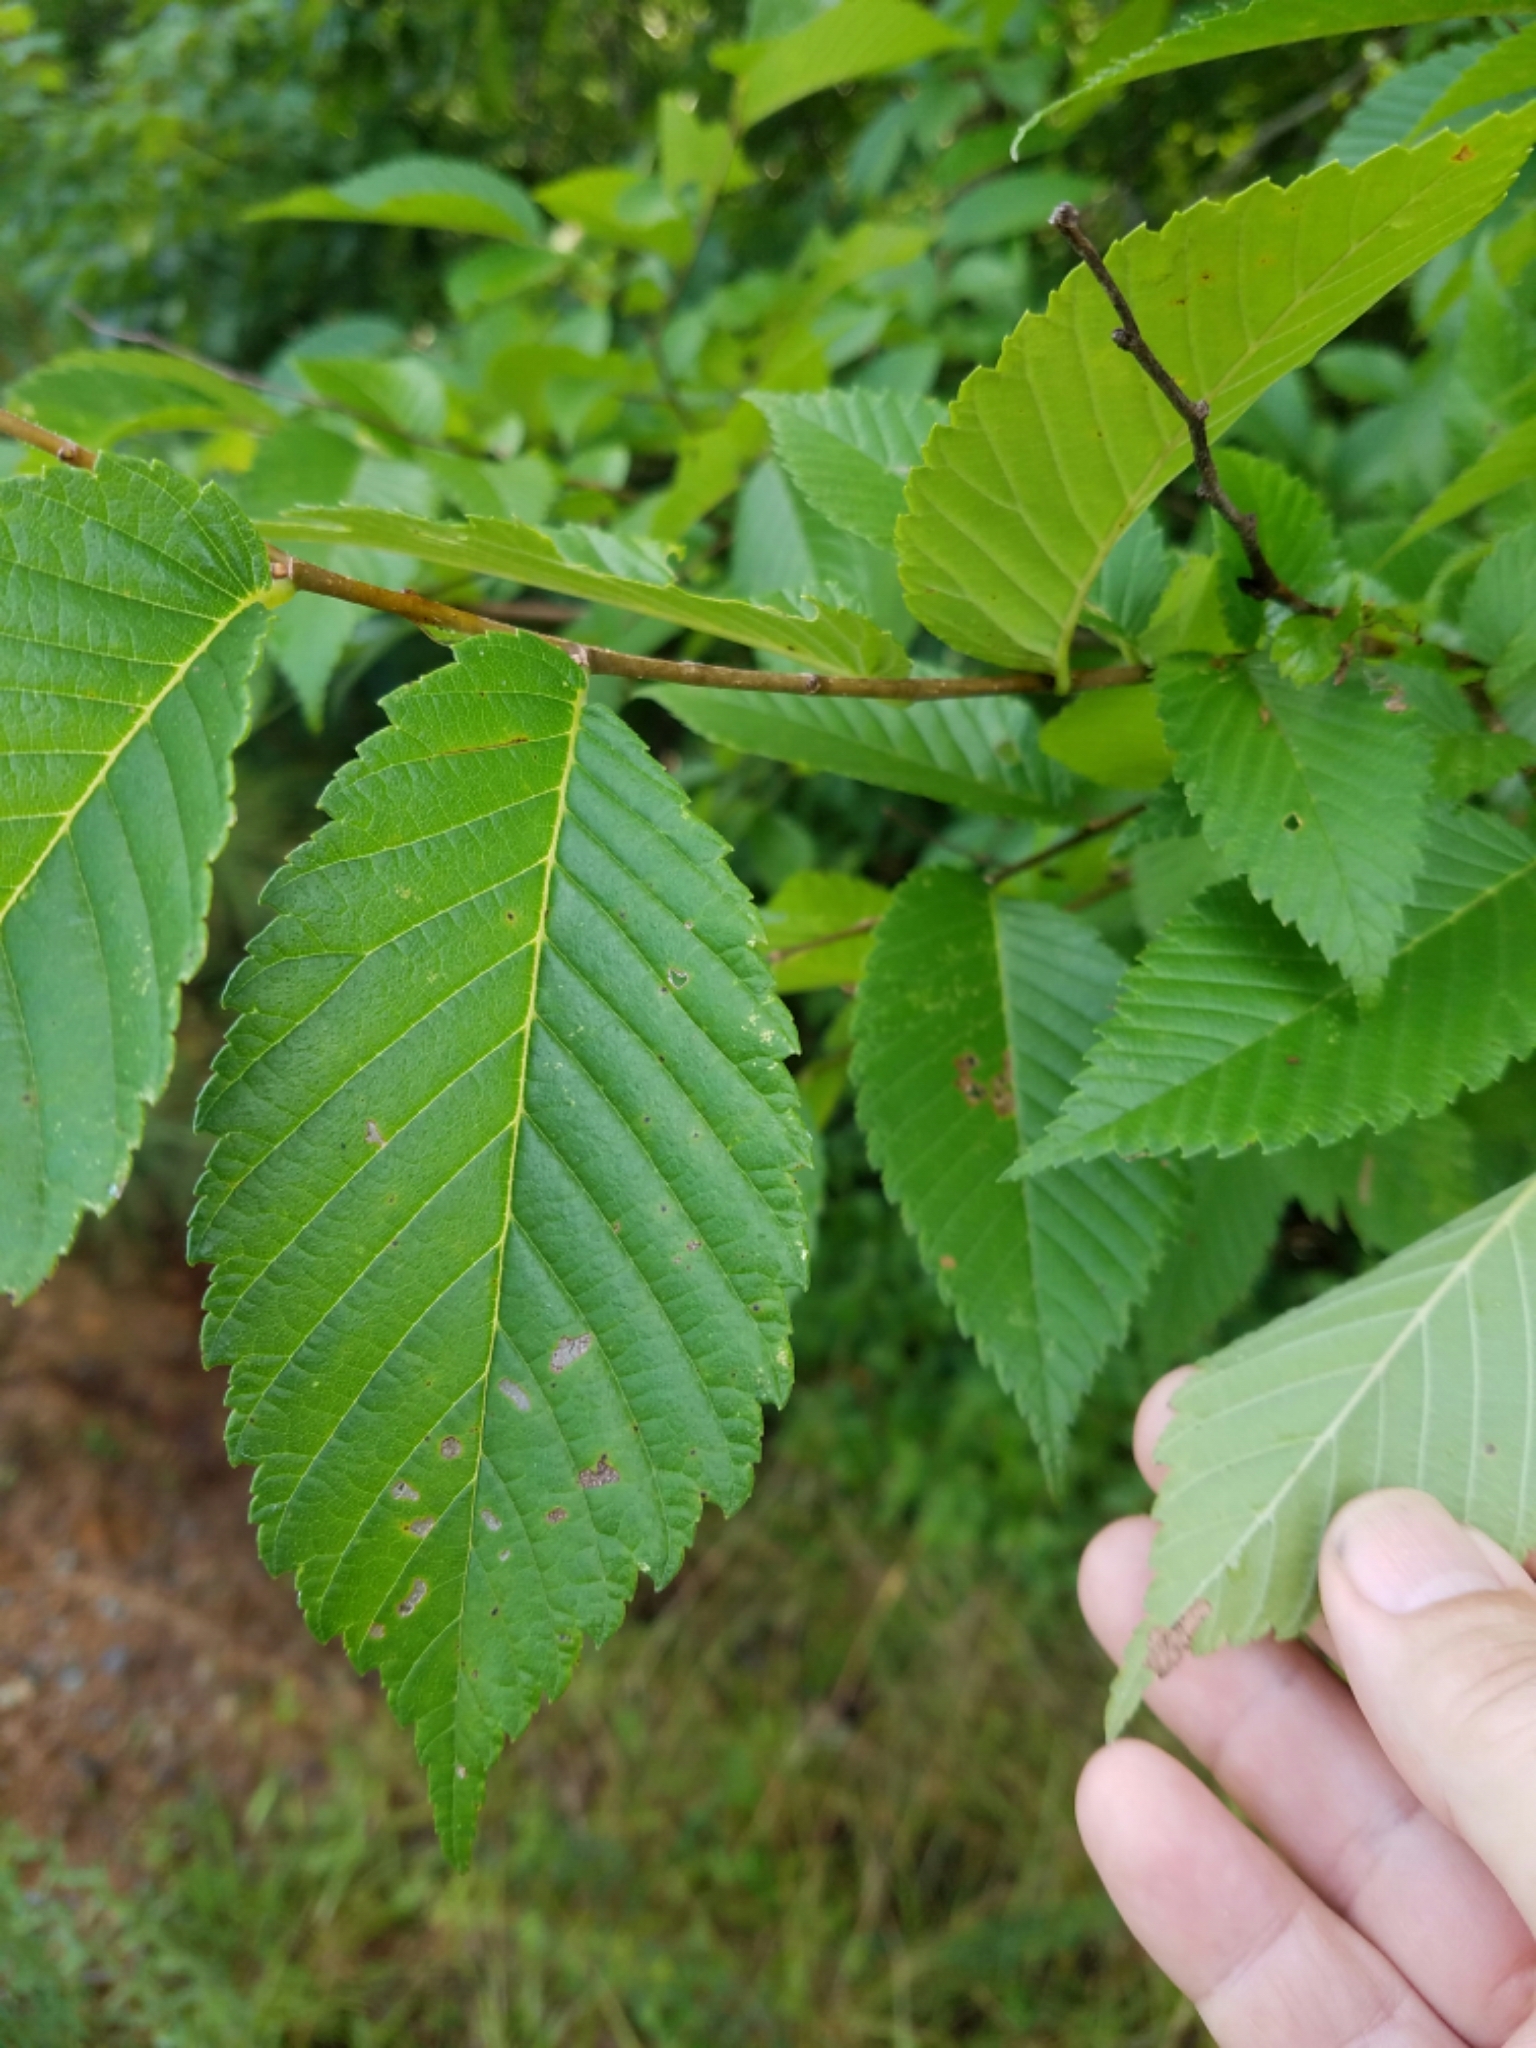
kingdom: Plantae
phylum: Tracheophyta
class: Magnoliopsida
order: Rosales
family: Ulmaceae
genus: Ulmus
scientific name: Ulmus americana
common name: American elm
